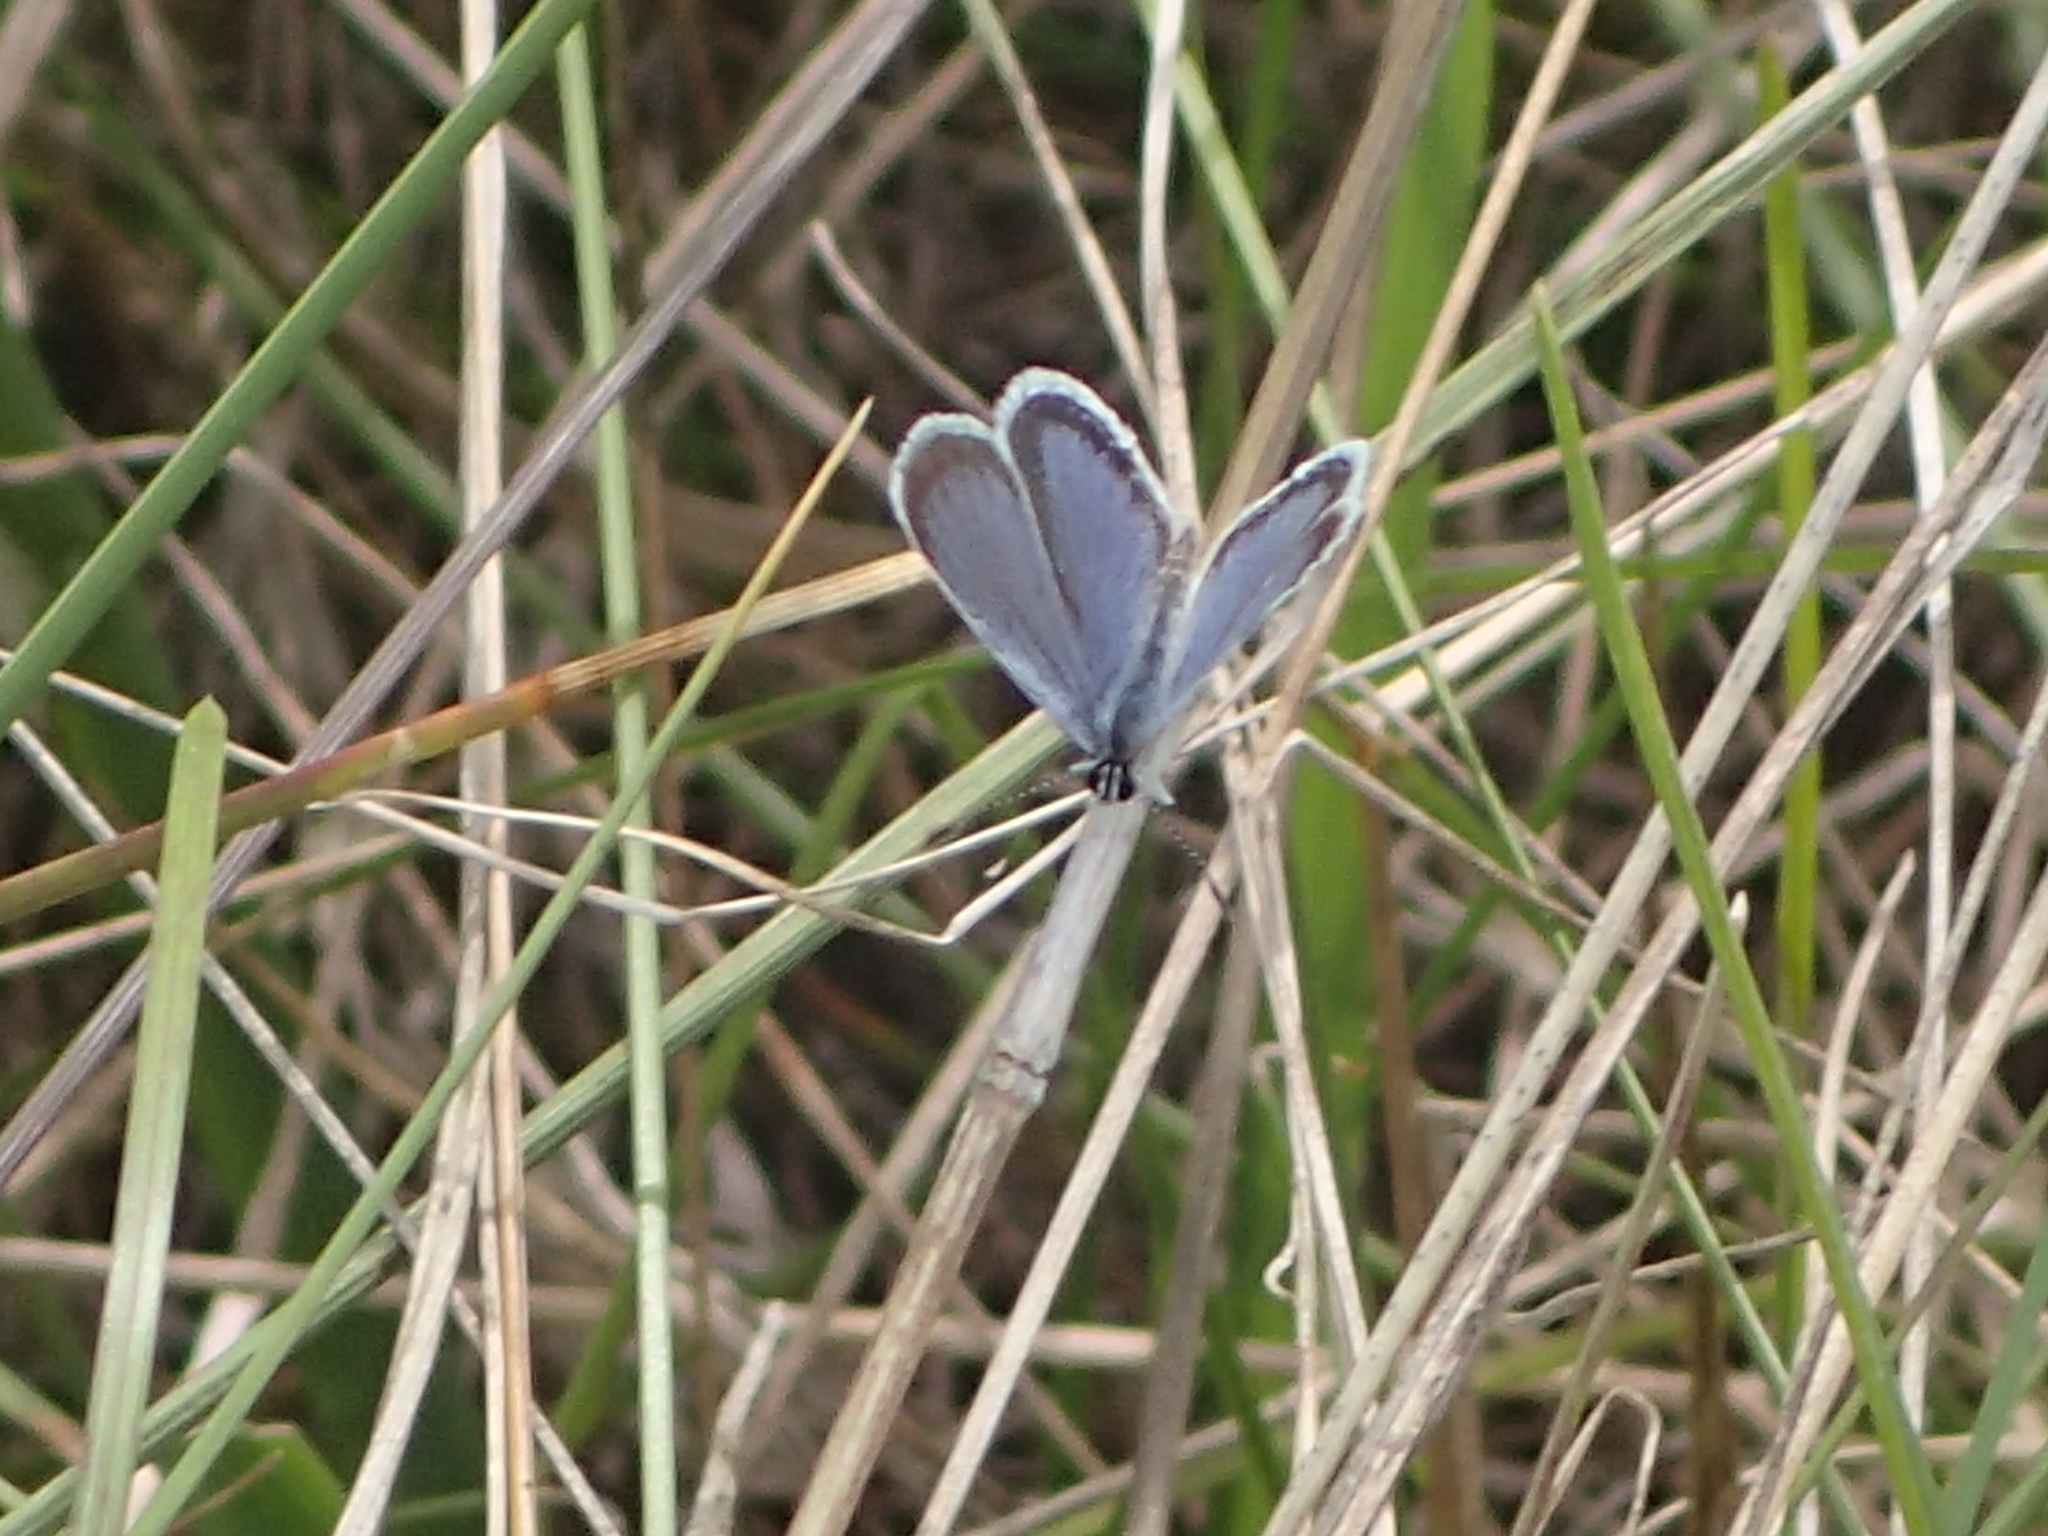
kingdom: Animalia
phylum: Arthropoda
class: Insecta
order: Lepidoptera
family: Lycaenidae
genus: Elkalyce
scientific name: Elkalyce comyntas
